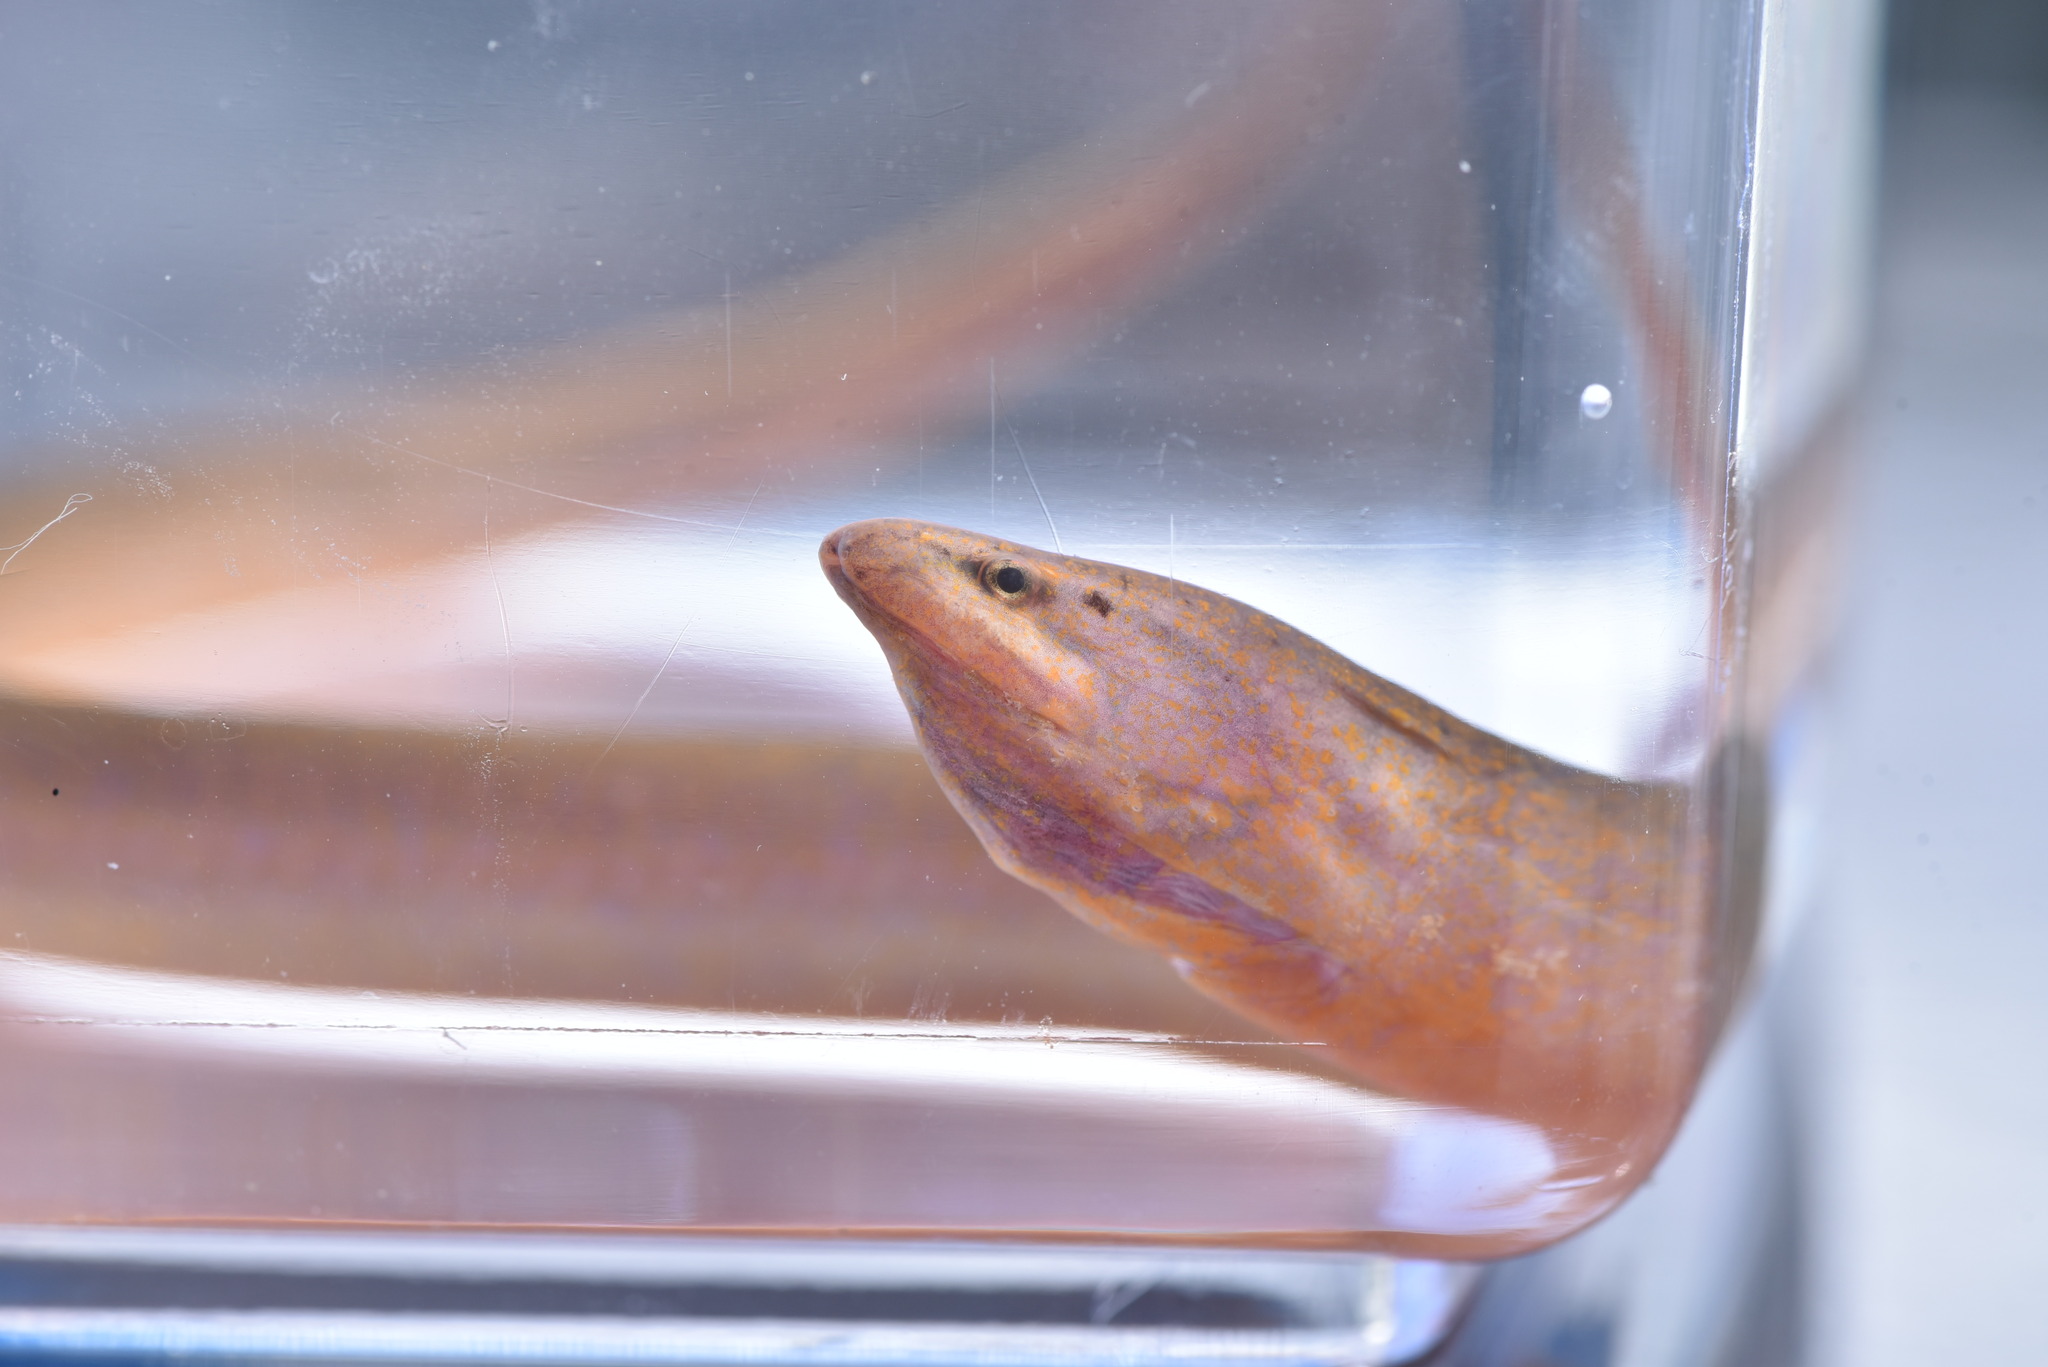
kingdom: Animalia
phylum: Chordata
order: Synbranchiformes
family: Synbranchidae
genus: Monopterus
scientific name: Monopterus albus
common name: Asian swamp eel
